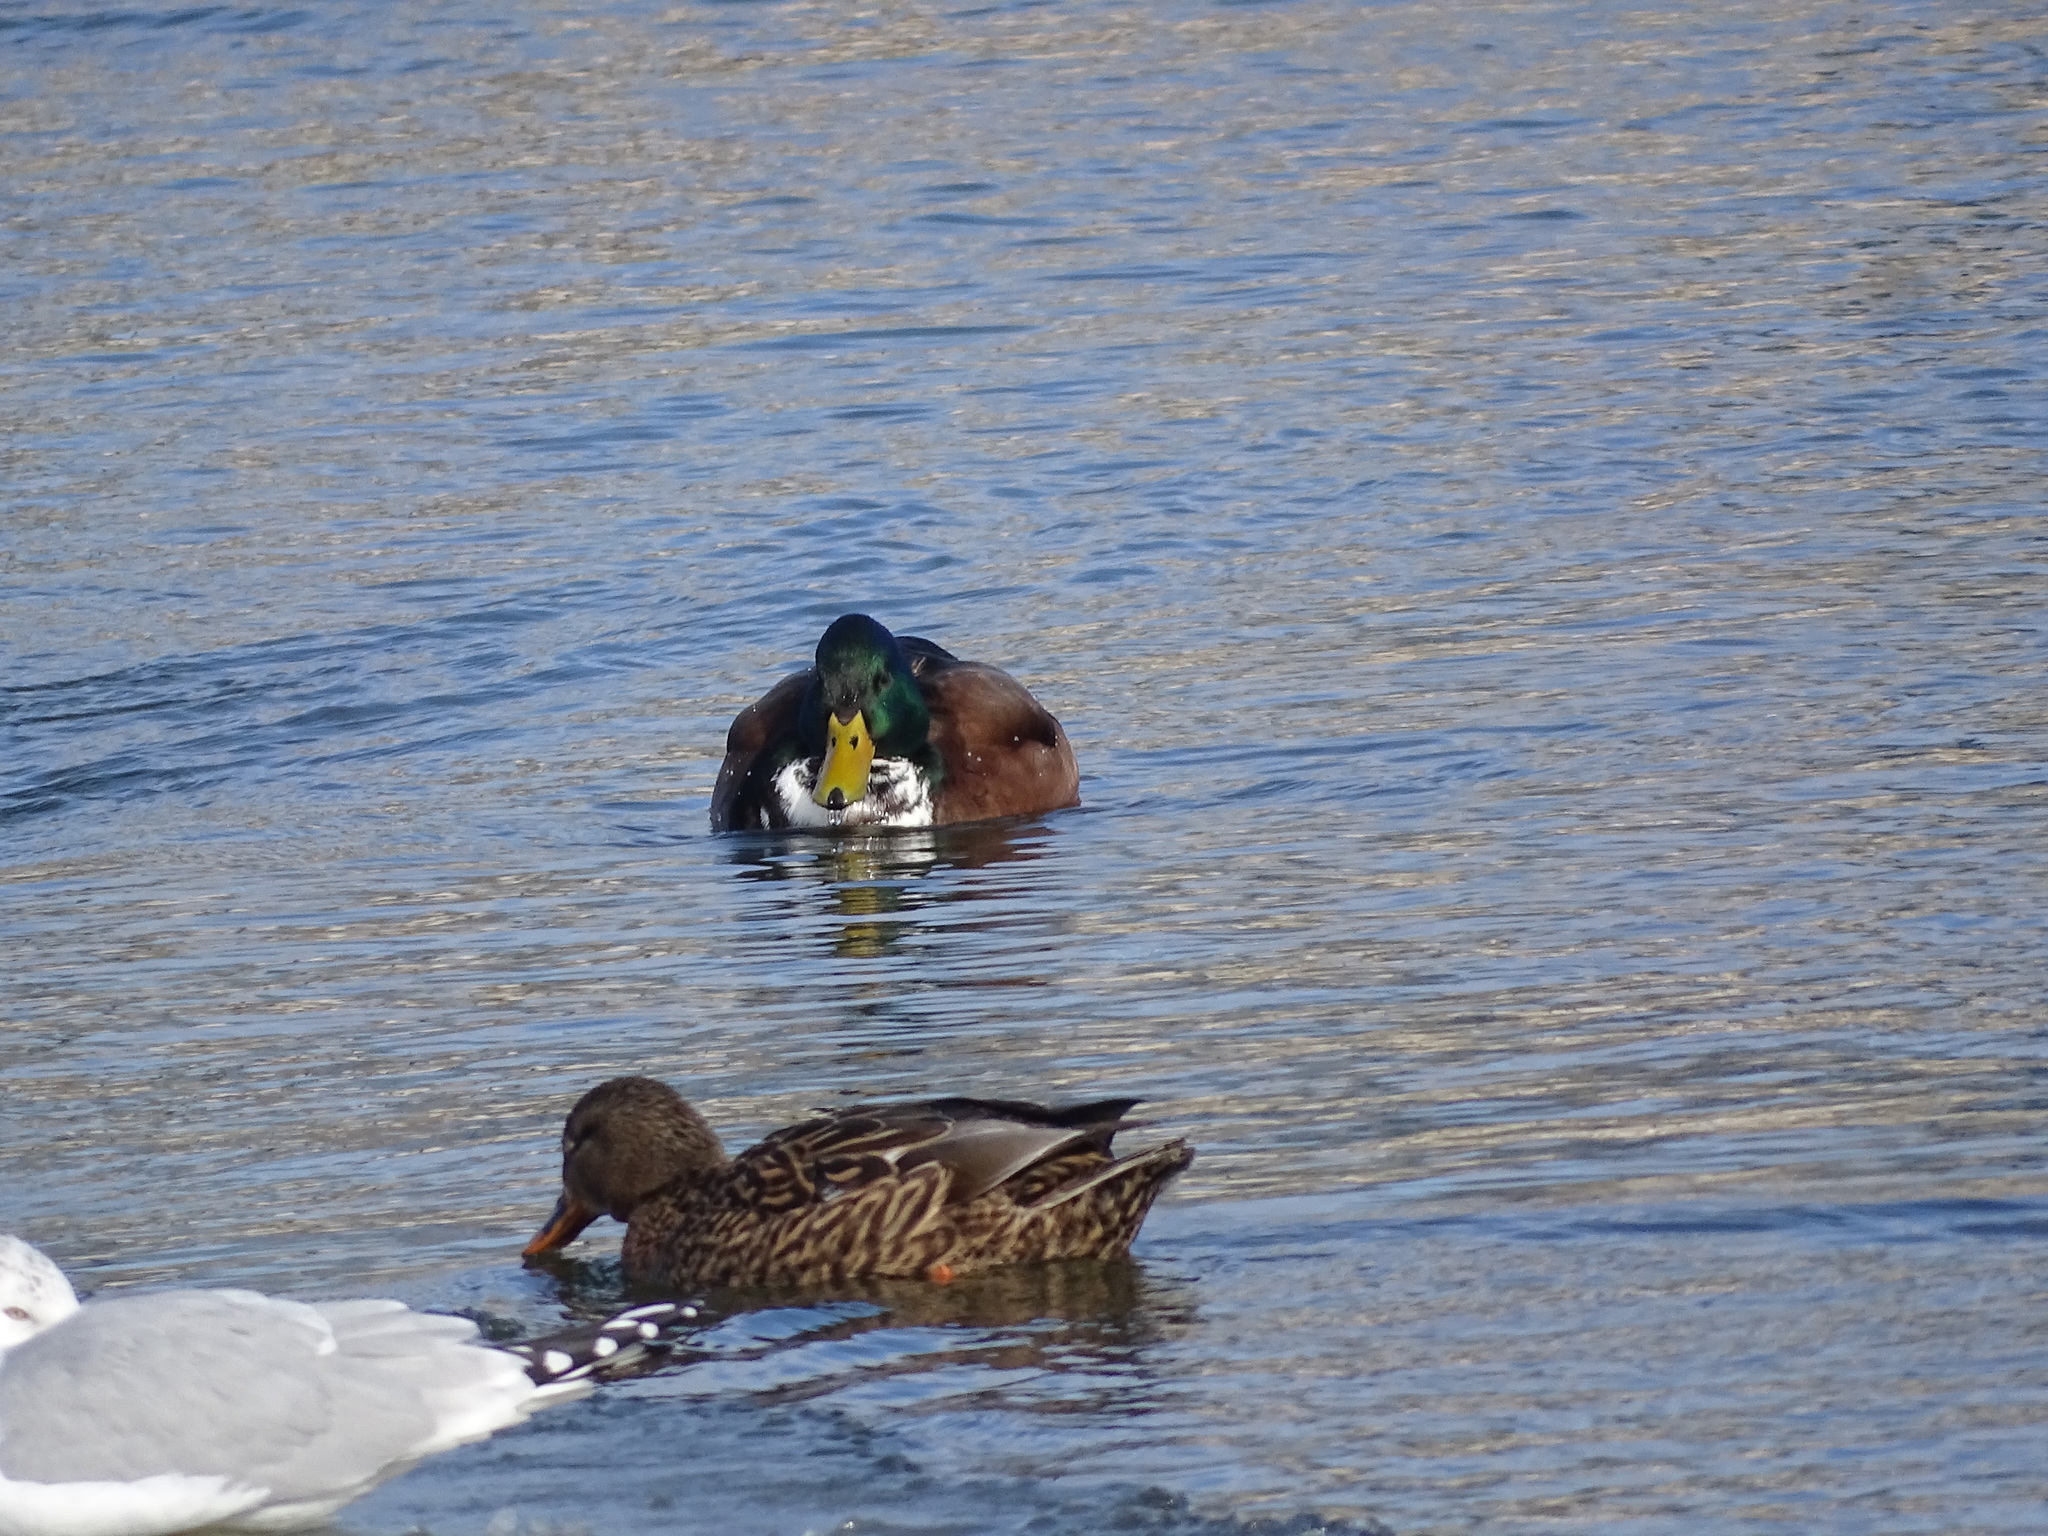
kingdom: Animalia
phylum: Chordata
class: Aves
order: Anseriformes
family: Anatidae
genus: Anas
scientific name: Anas platyrhynchos
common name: Mallard
